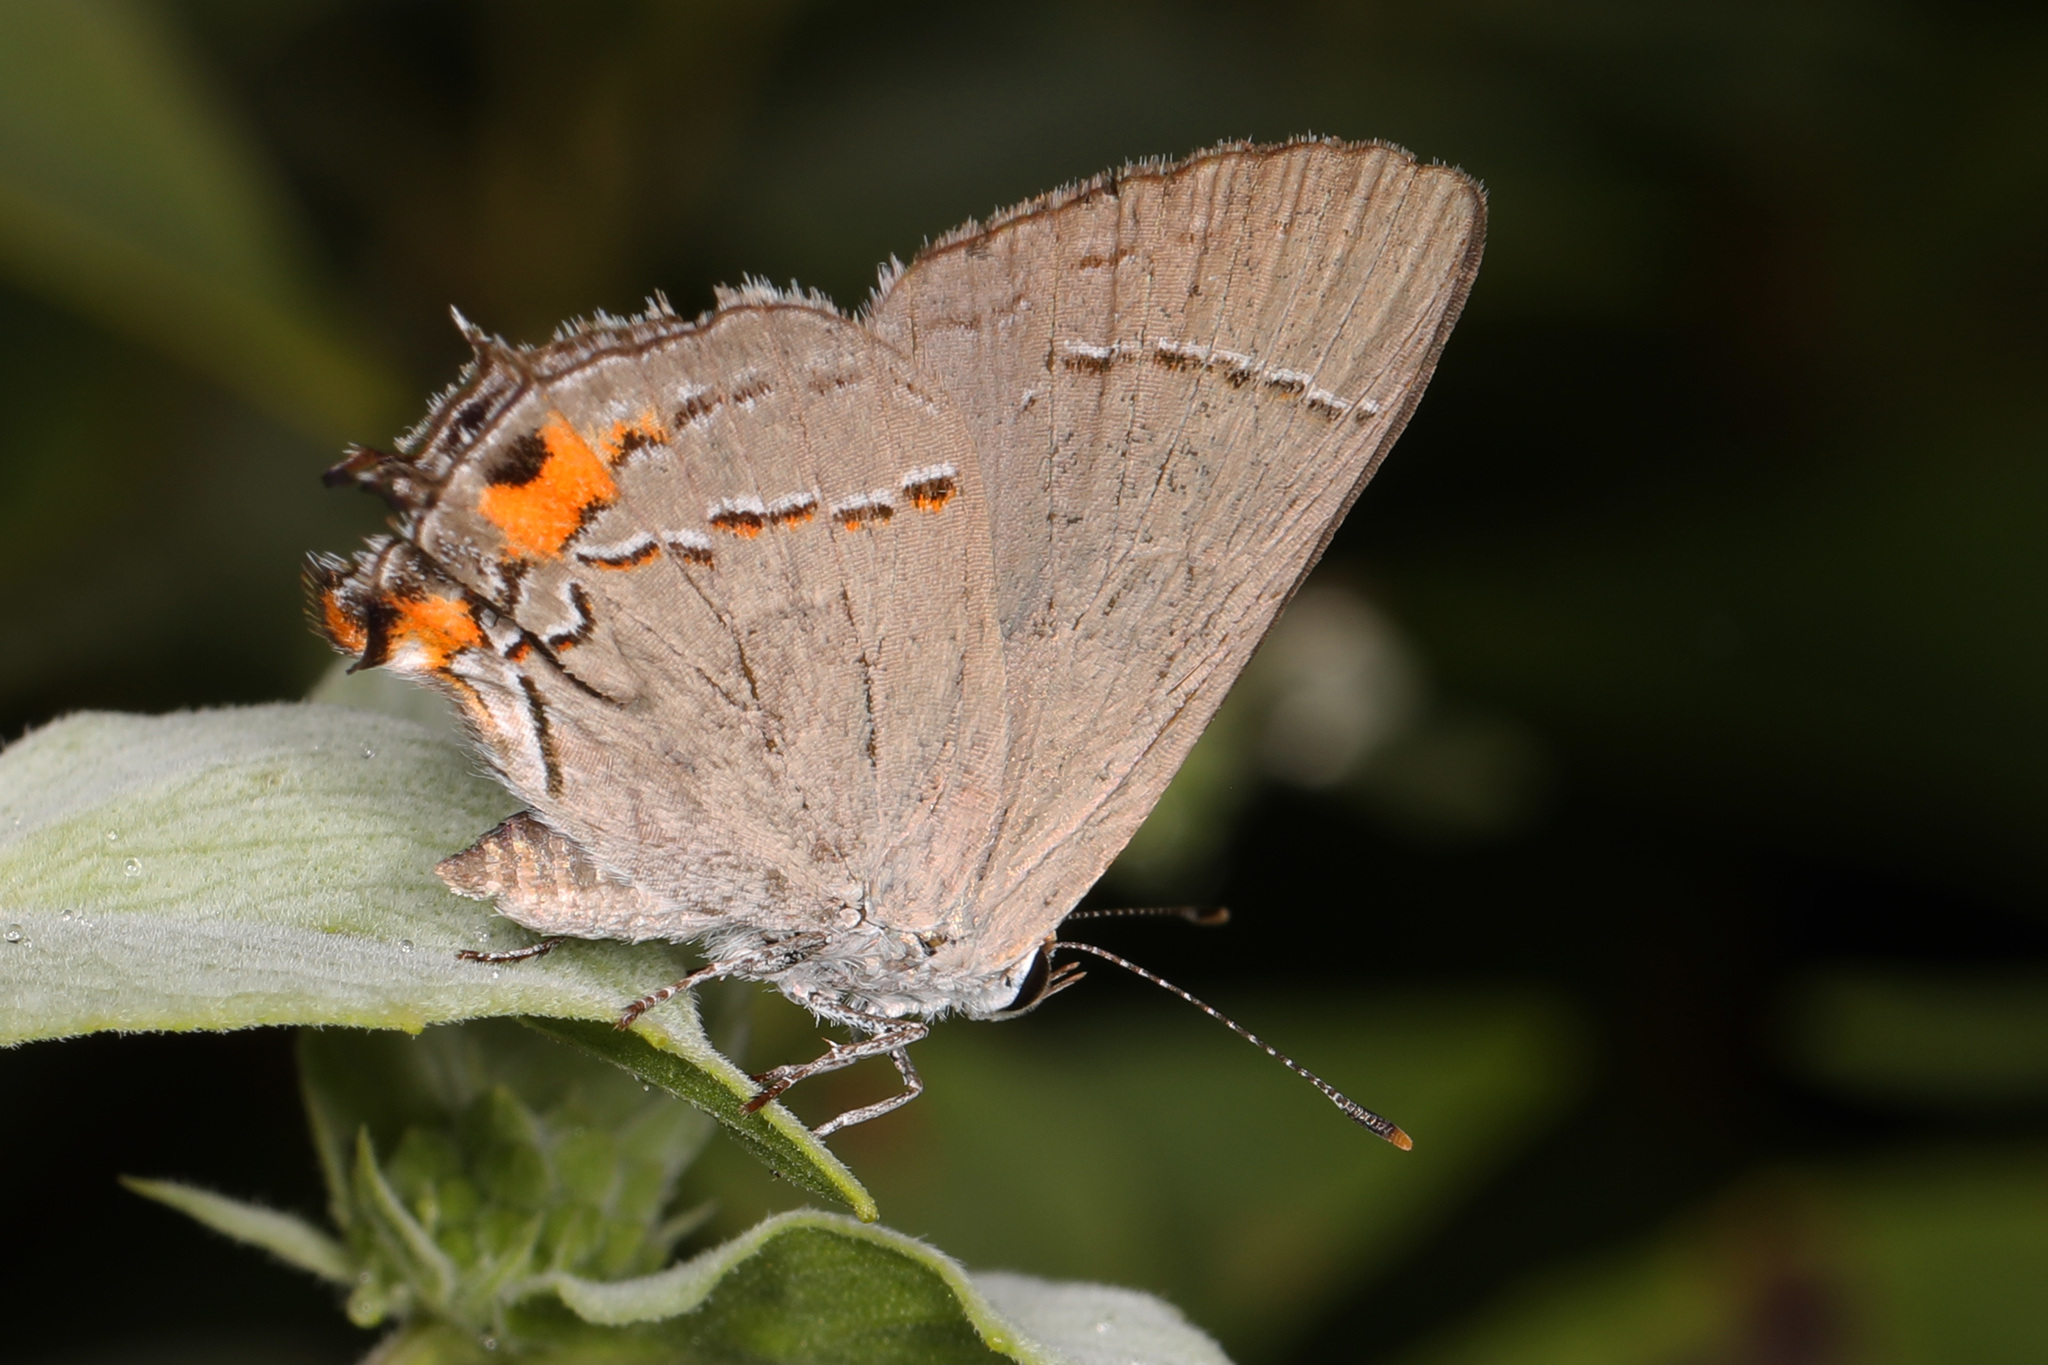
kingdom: Animalia
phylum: Arthropoda
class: Insecta
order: Lepidoptera
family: Lycaenidae
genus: Strymon
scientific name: Strymon melinus
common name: Gray hairstreak
